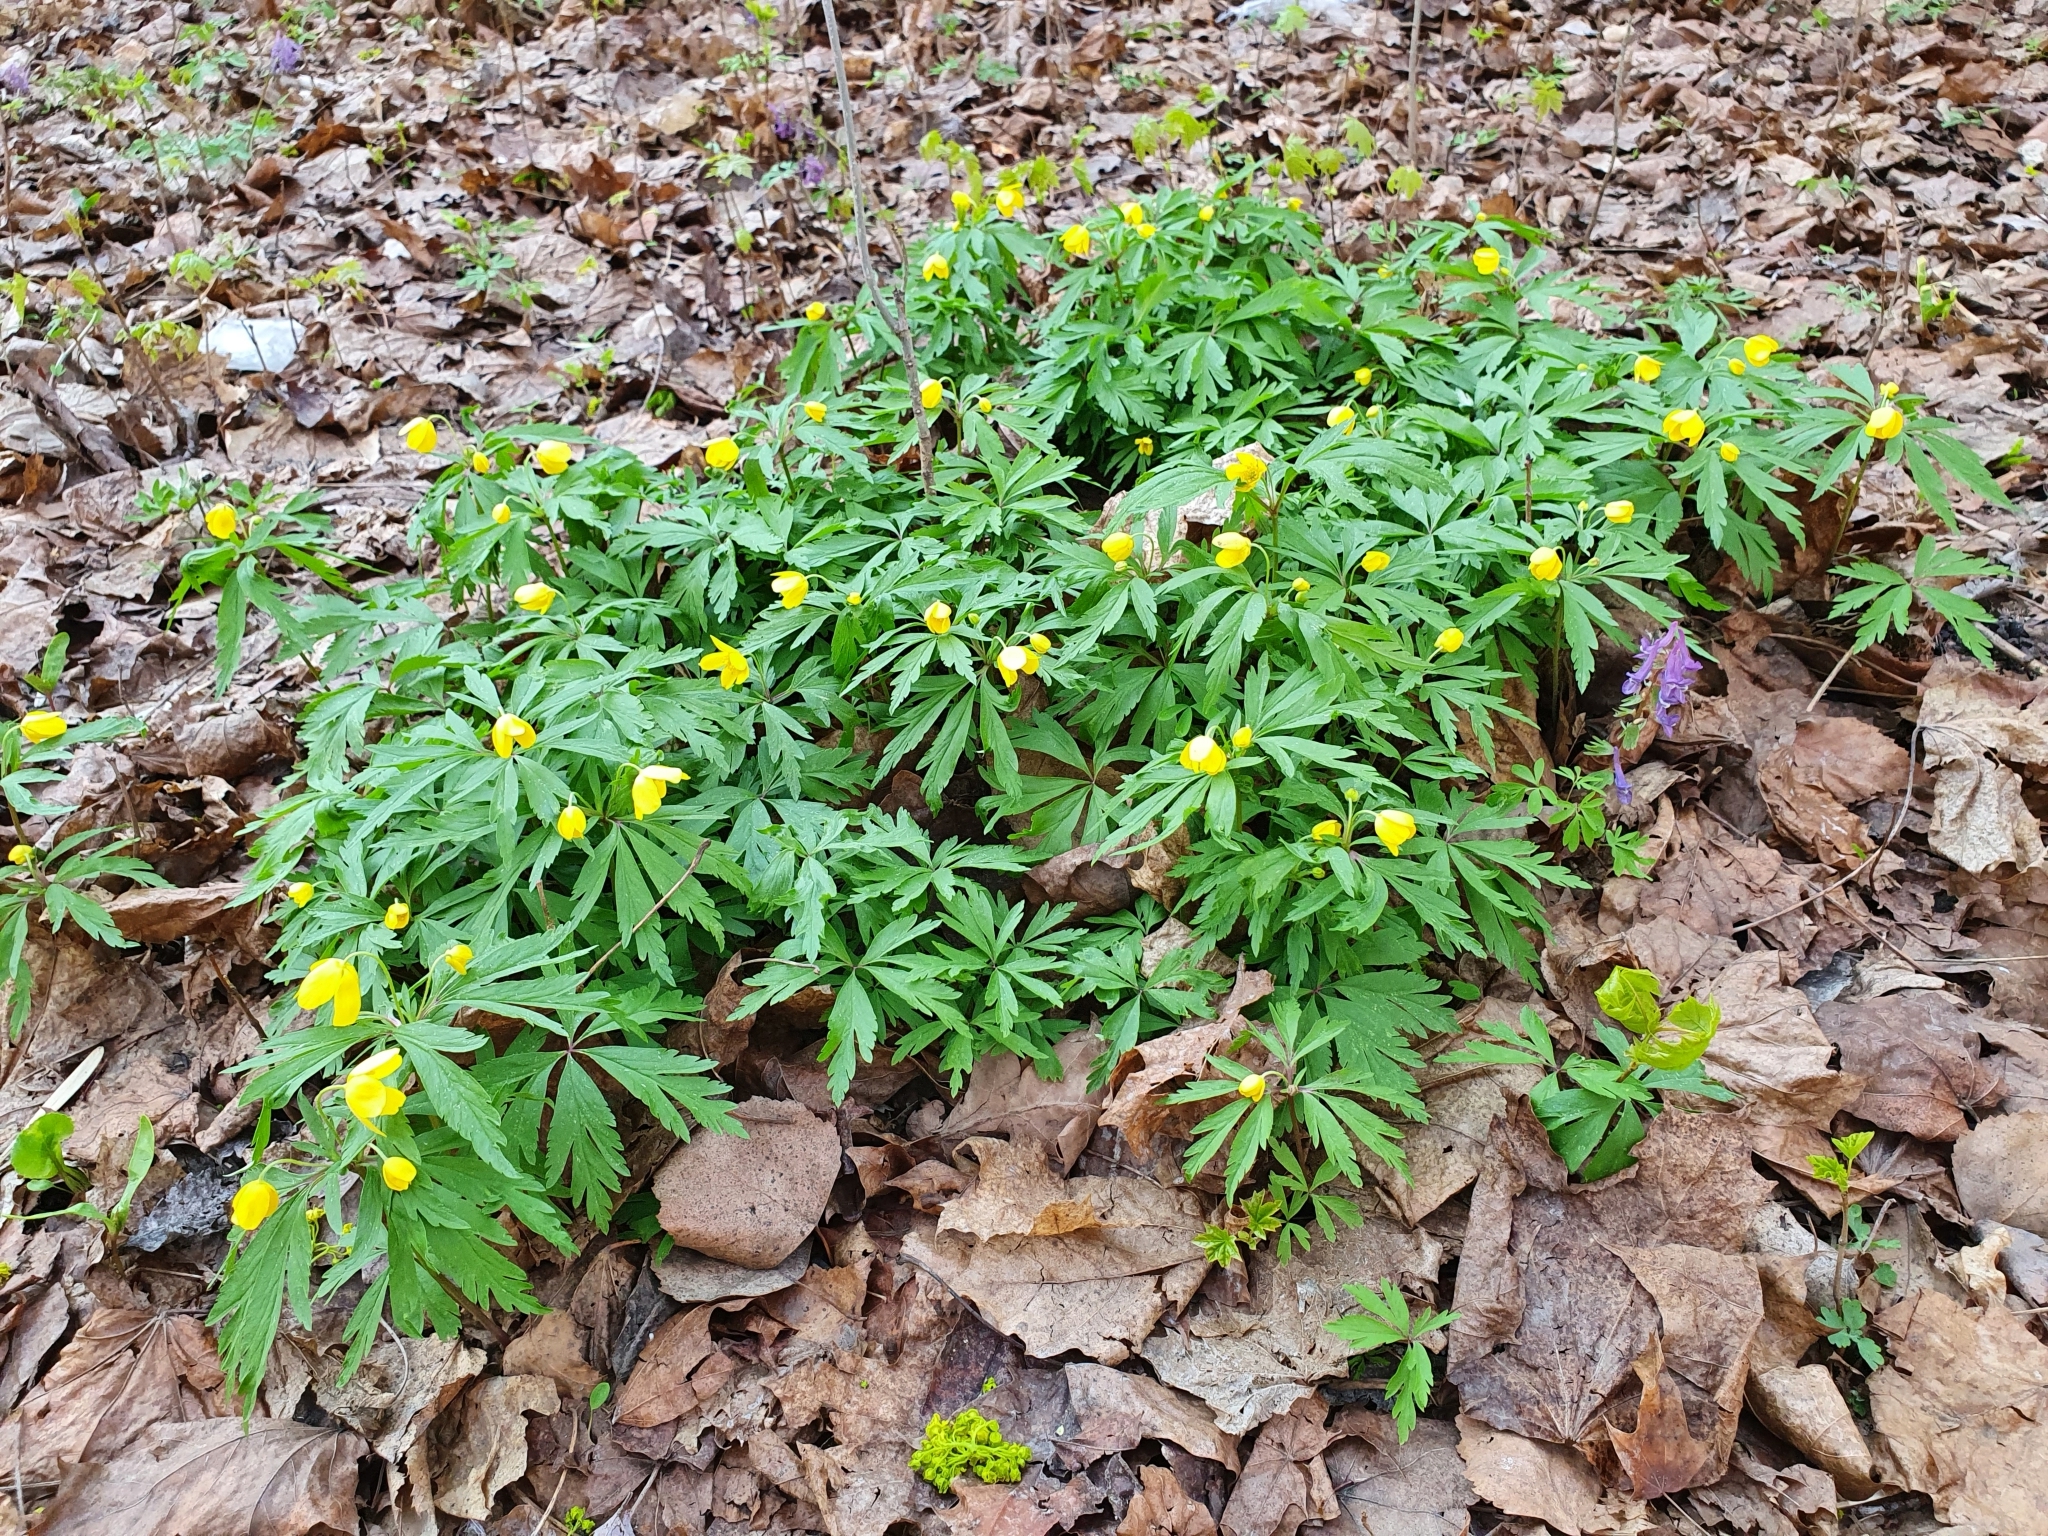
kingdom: Plantae
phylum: Tracheophyta
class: Magnoliopsida
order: Ranunculales
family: Ranunculaceae
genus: Anemone
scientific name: Anemone ranunculoides
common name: Yellow anemone
